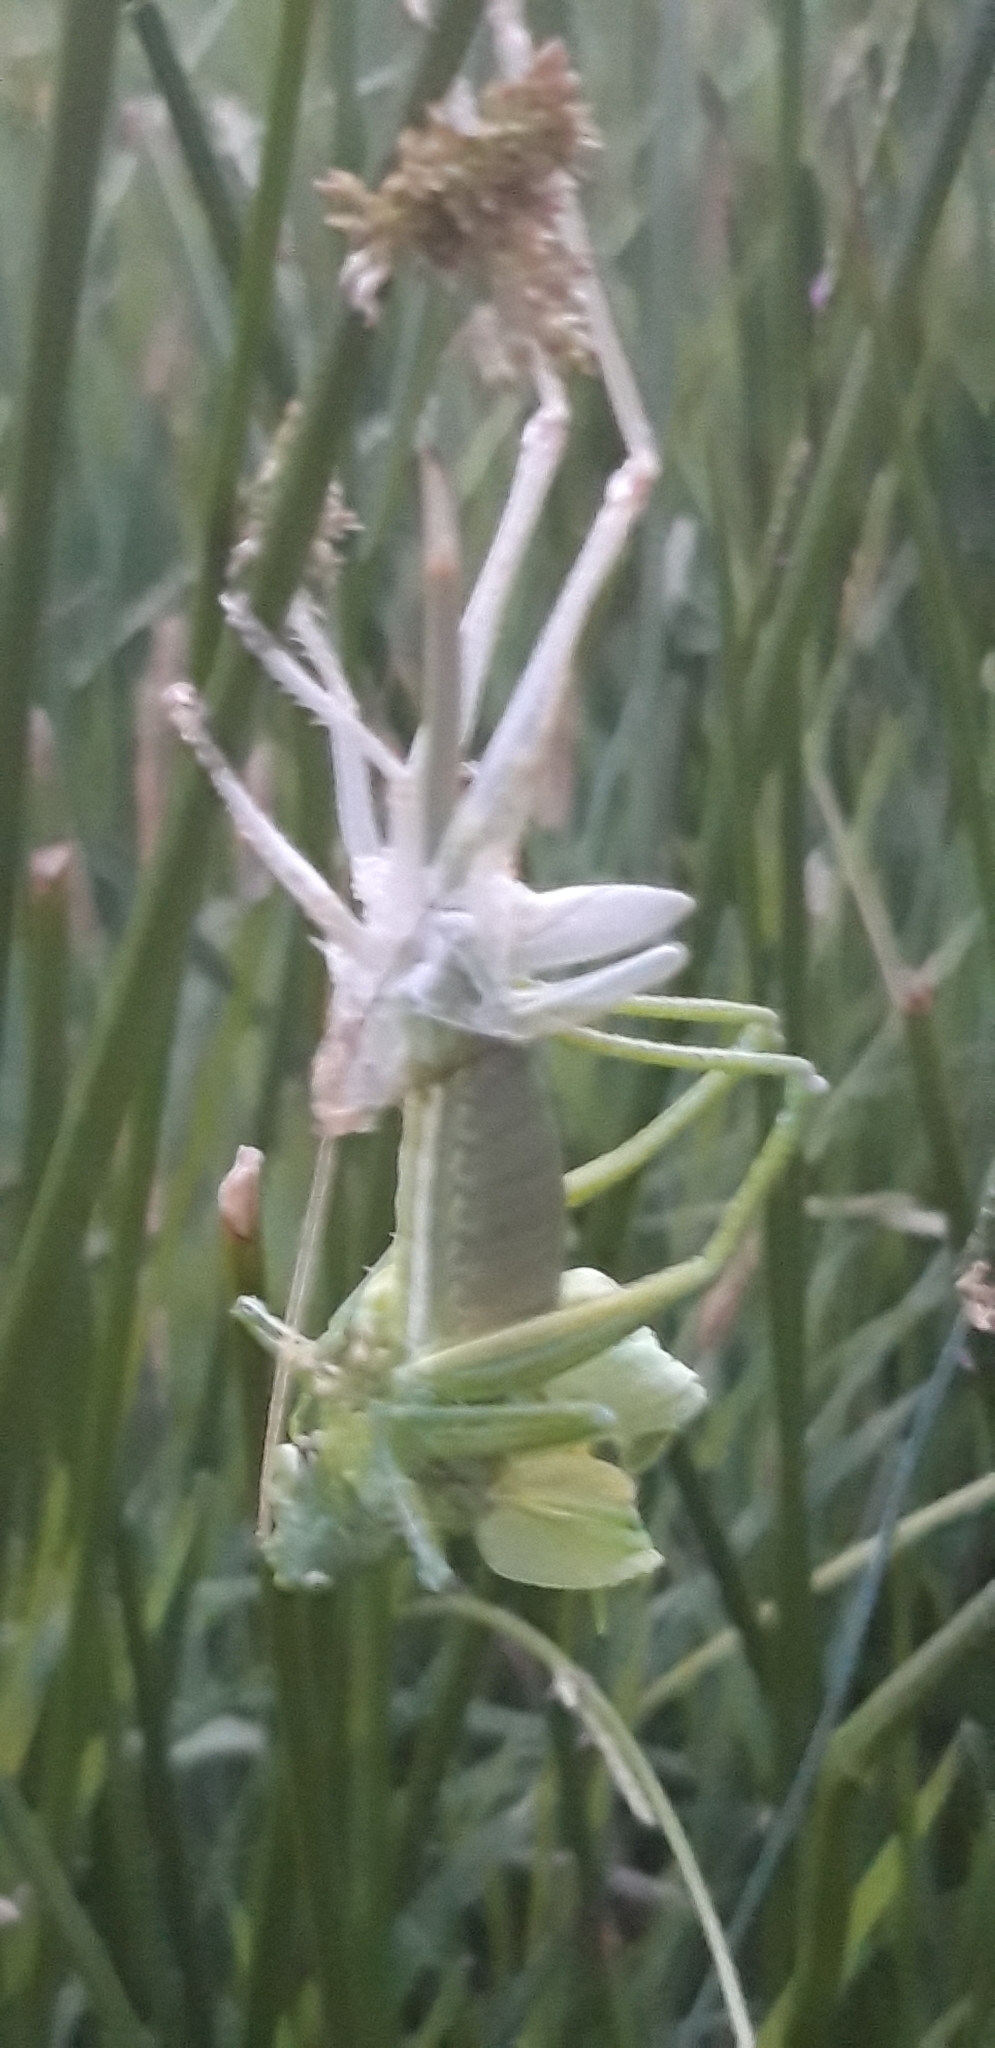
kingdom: Animalia
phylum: Arthropoda
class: Insecta
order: Orthoptera
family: Tettigoniidae
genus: Tettigonia
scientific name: Tettigonia viridissima
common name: Great green bush-cricket
